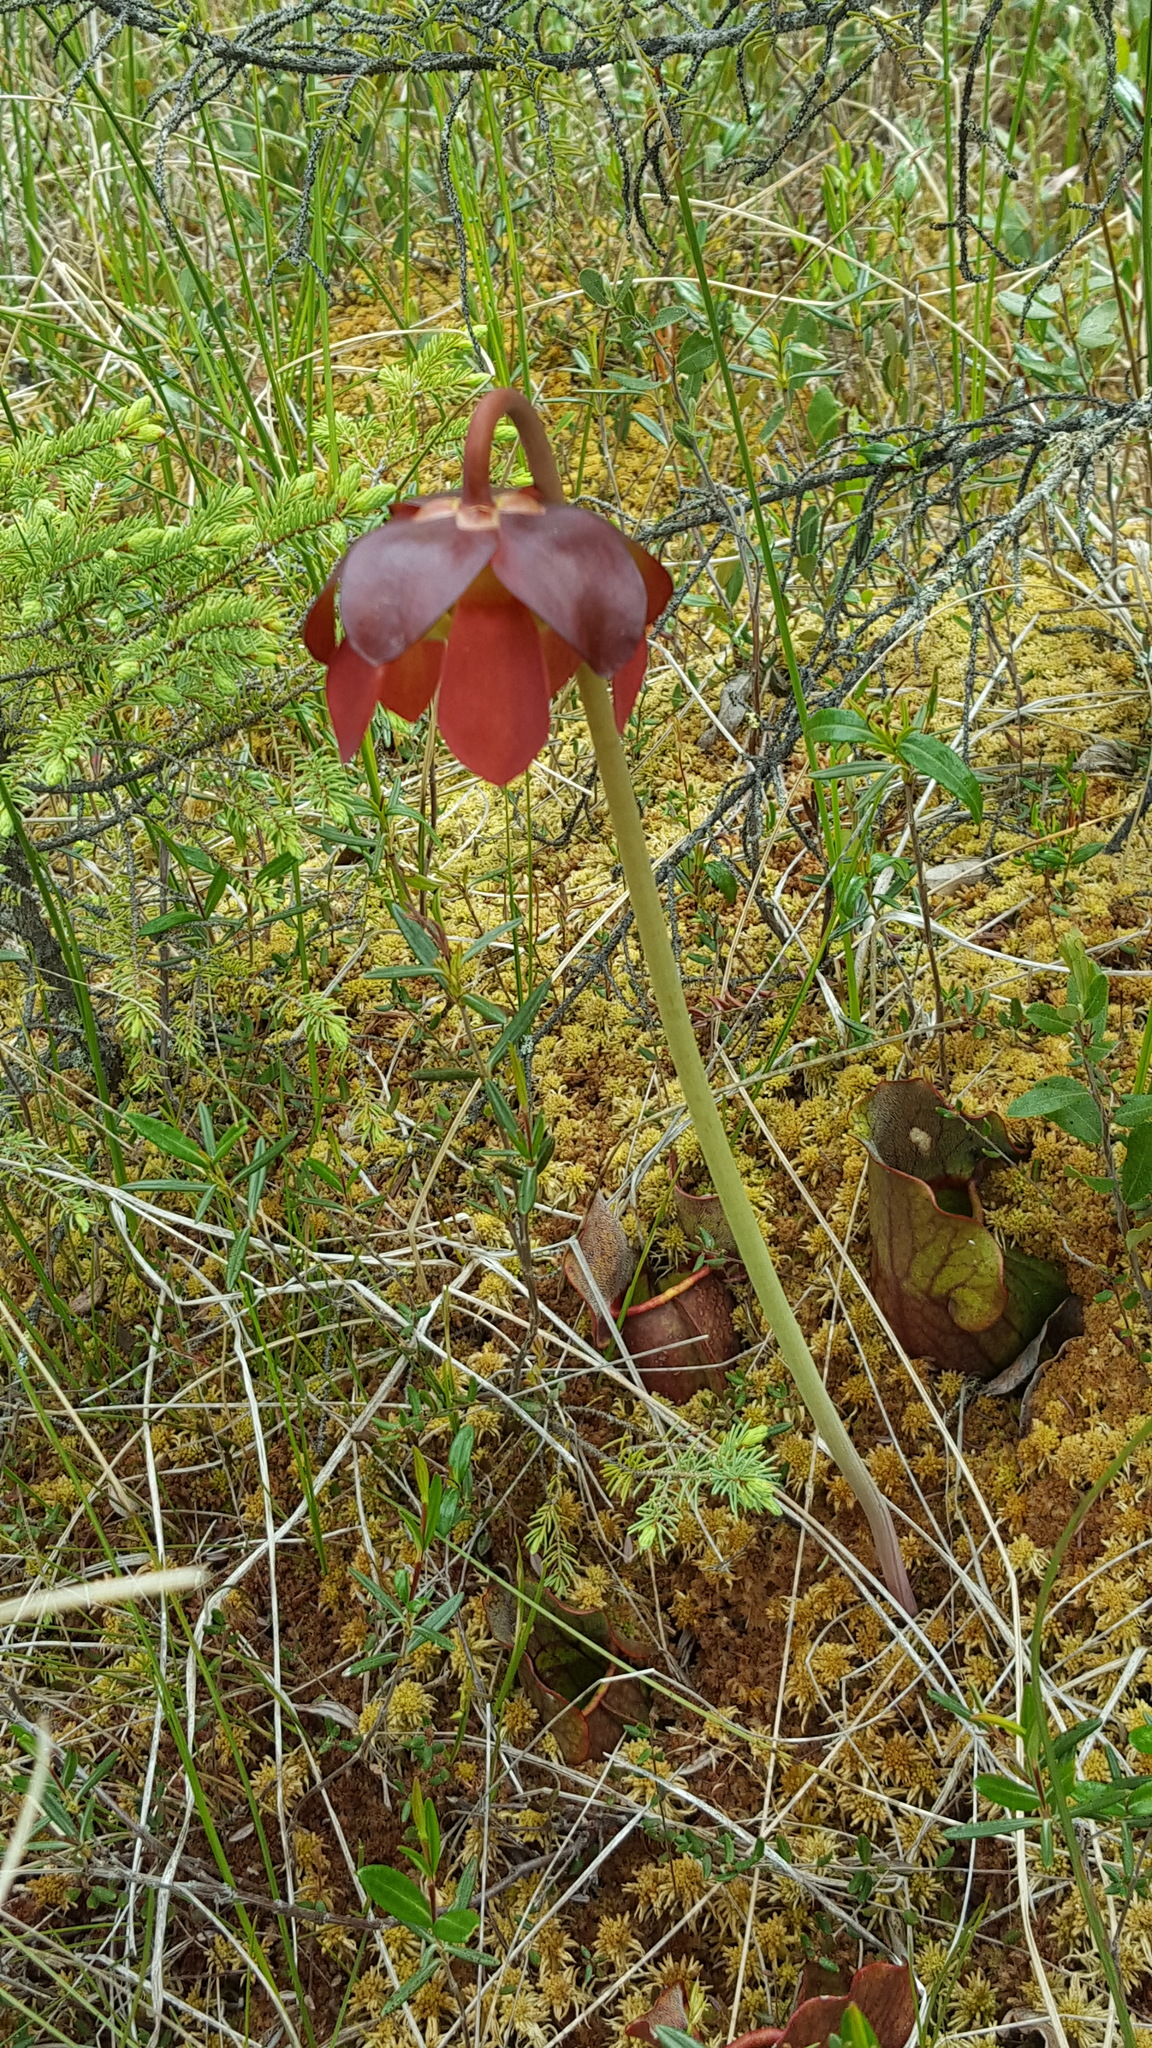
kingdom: Plantae
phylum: Tracheophyta
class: Magnoliopsida
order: Ericales
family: Sarraceniaceae
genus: Sarracenia
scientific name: Sarracenia purpurea
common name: Pitcherplant
